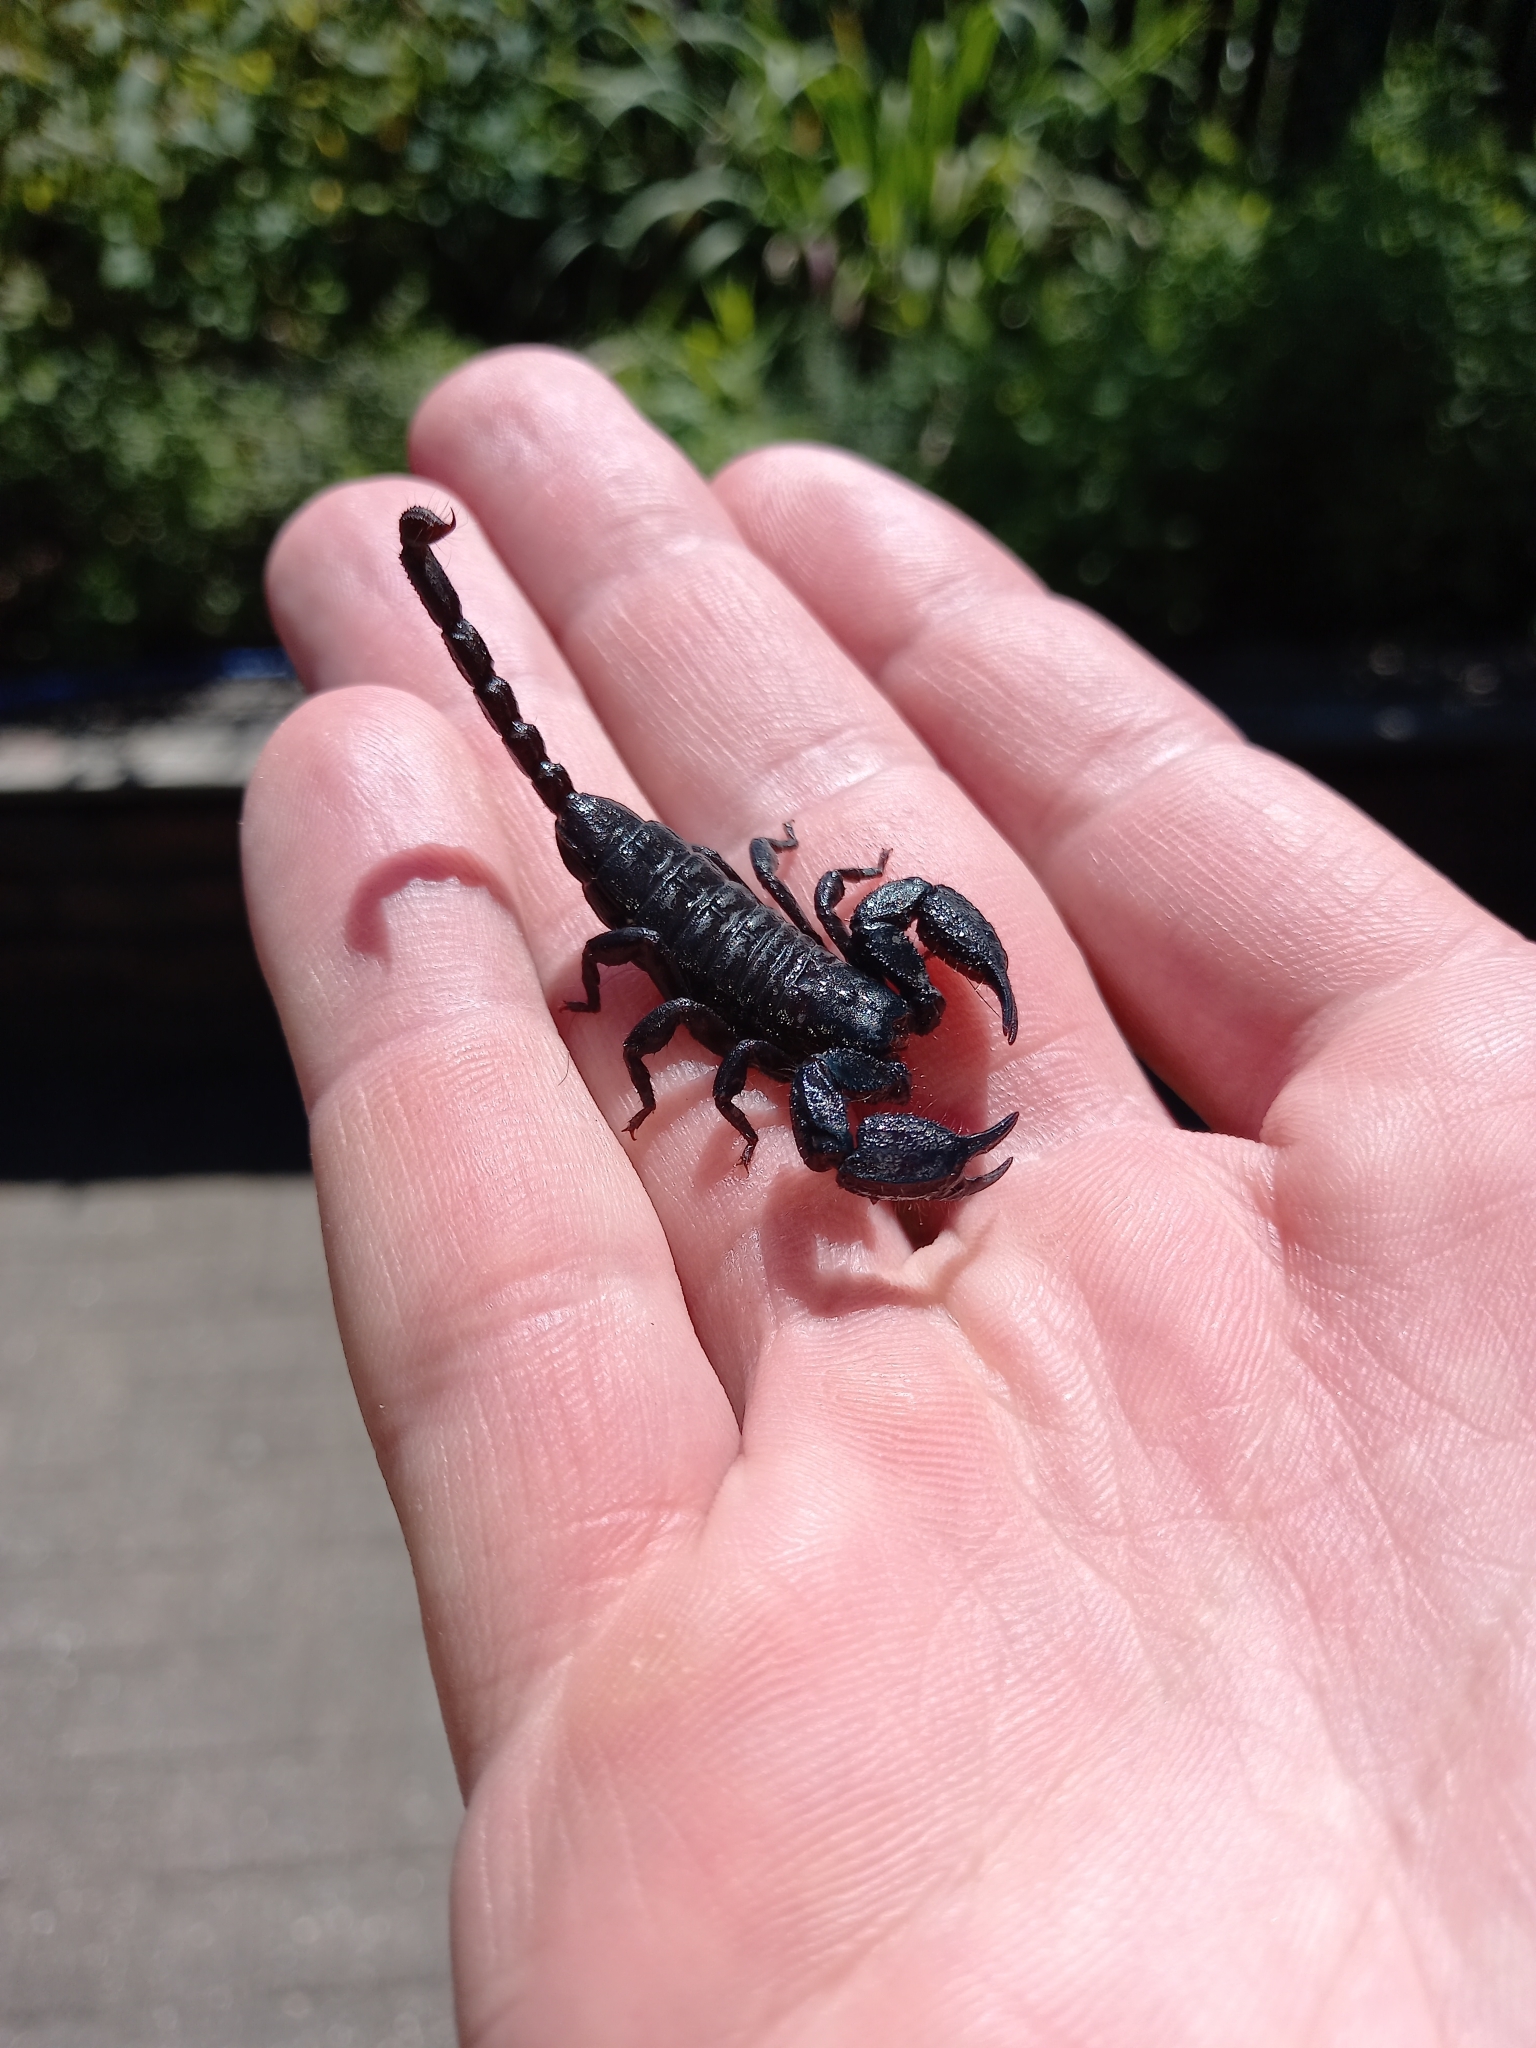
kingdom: Animalia
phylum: Arthropoda
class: Arachnida
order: Scorpiones
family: Hormuridae
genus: Opisthacanthus
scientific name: Opisthacanthus capensis
